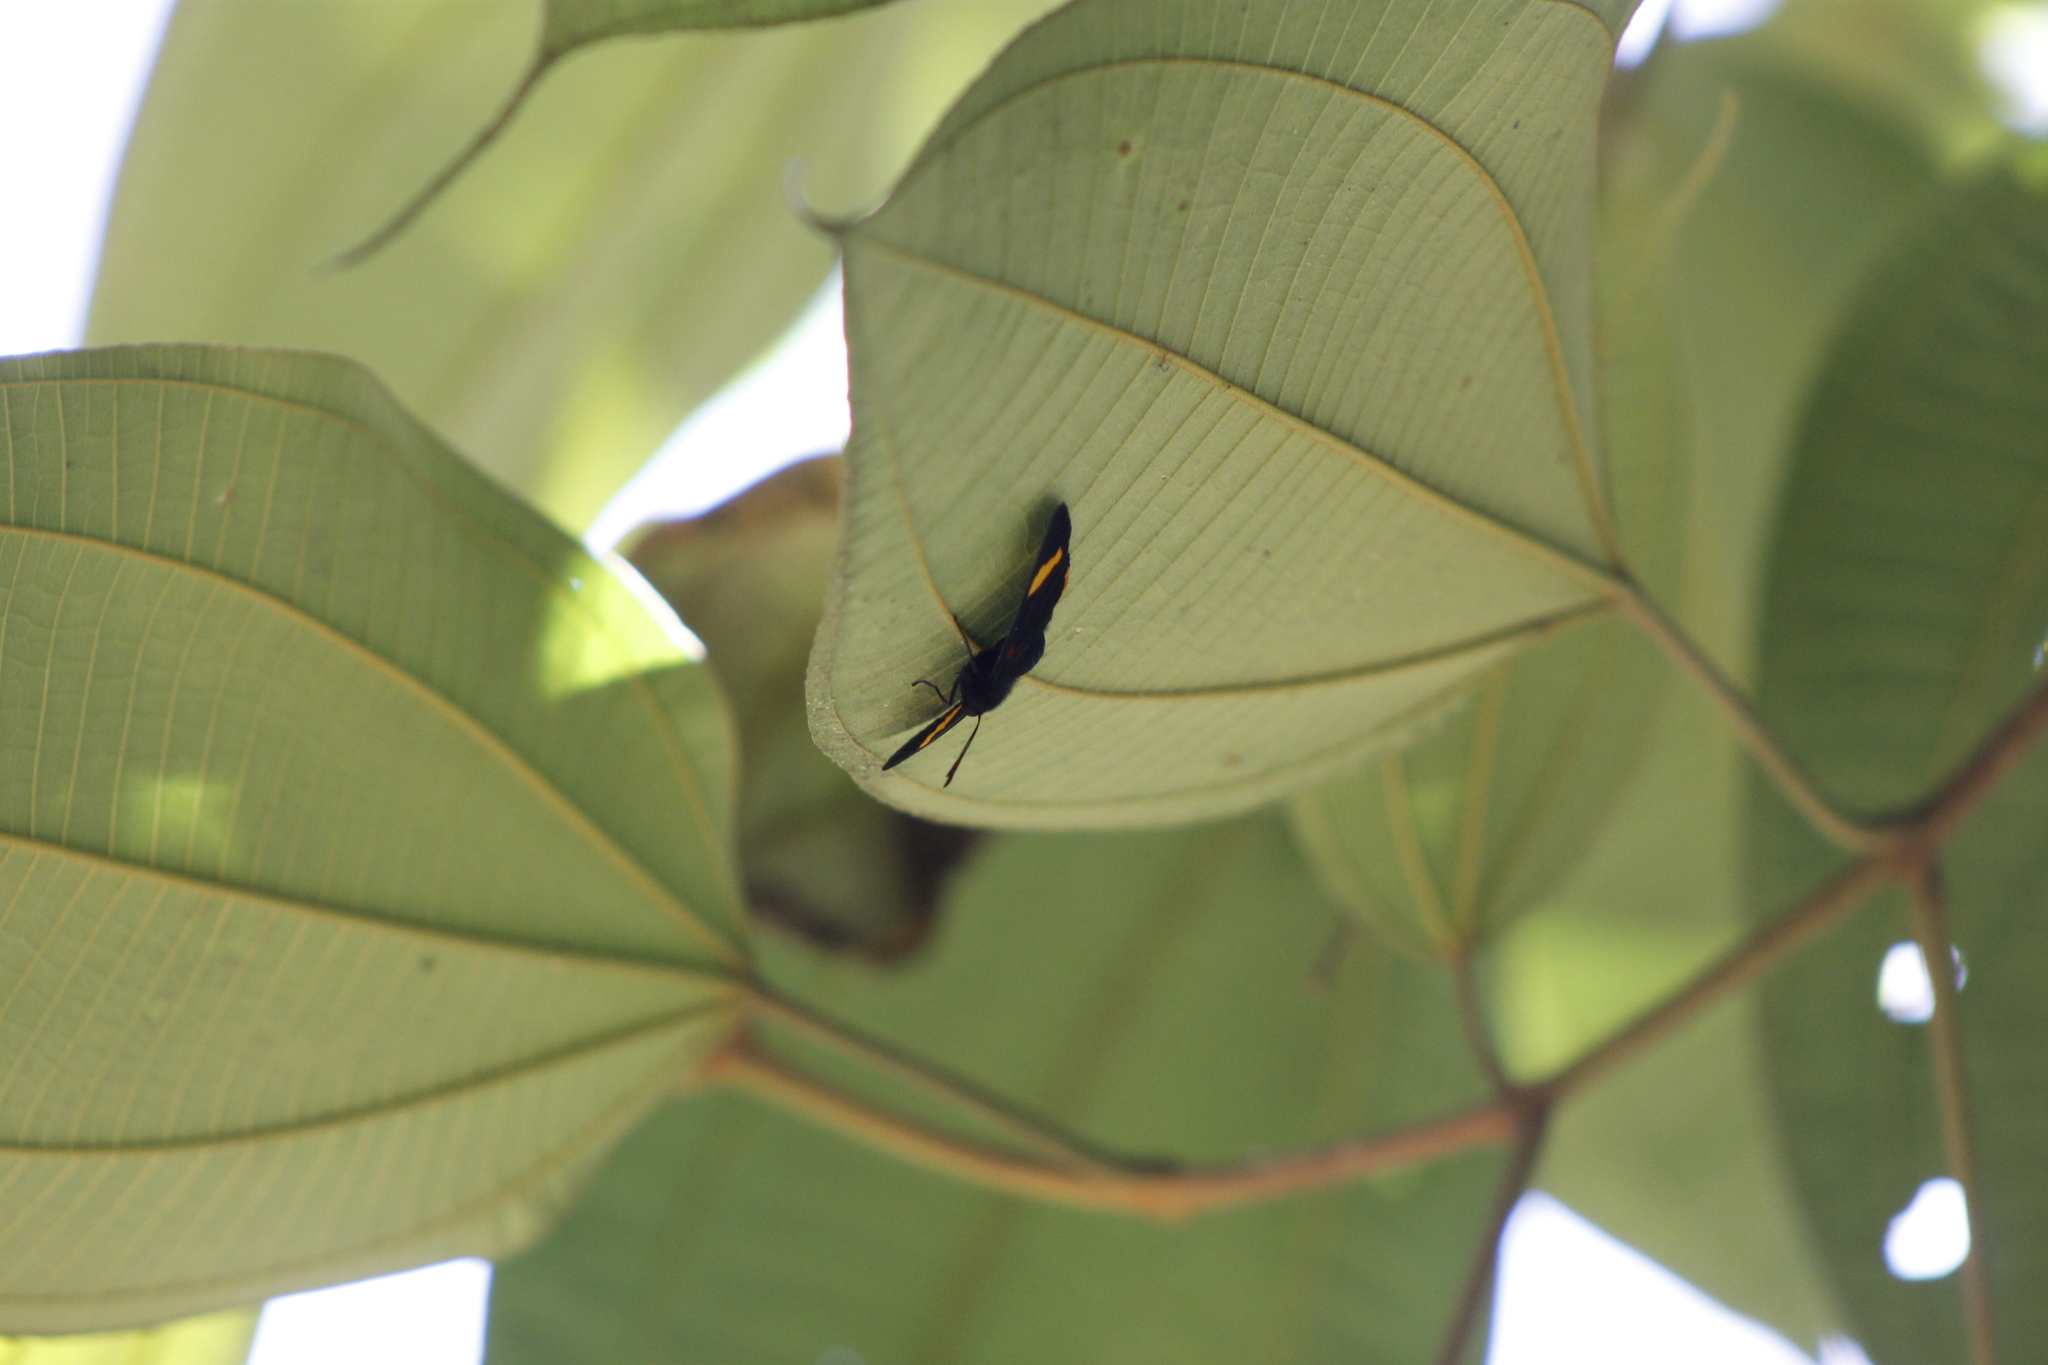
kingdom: Animalia
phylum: Arthropoda
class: Insecta
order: Lepidoptera
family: Lycaenidae
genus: Melanis
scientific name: Melanis electron
